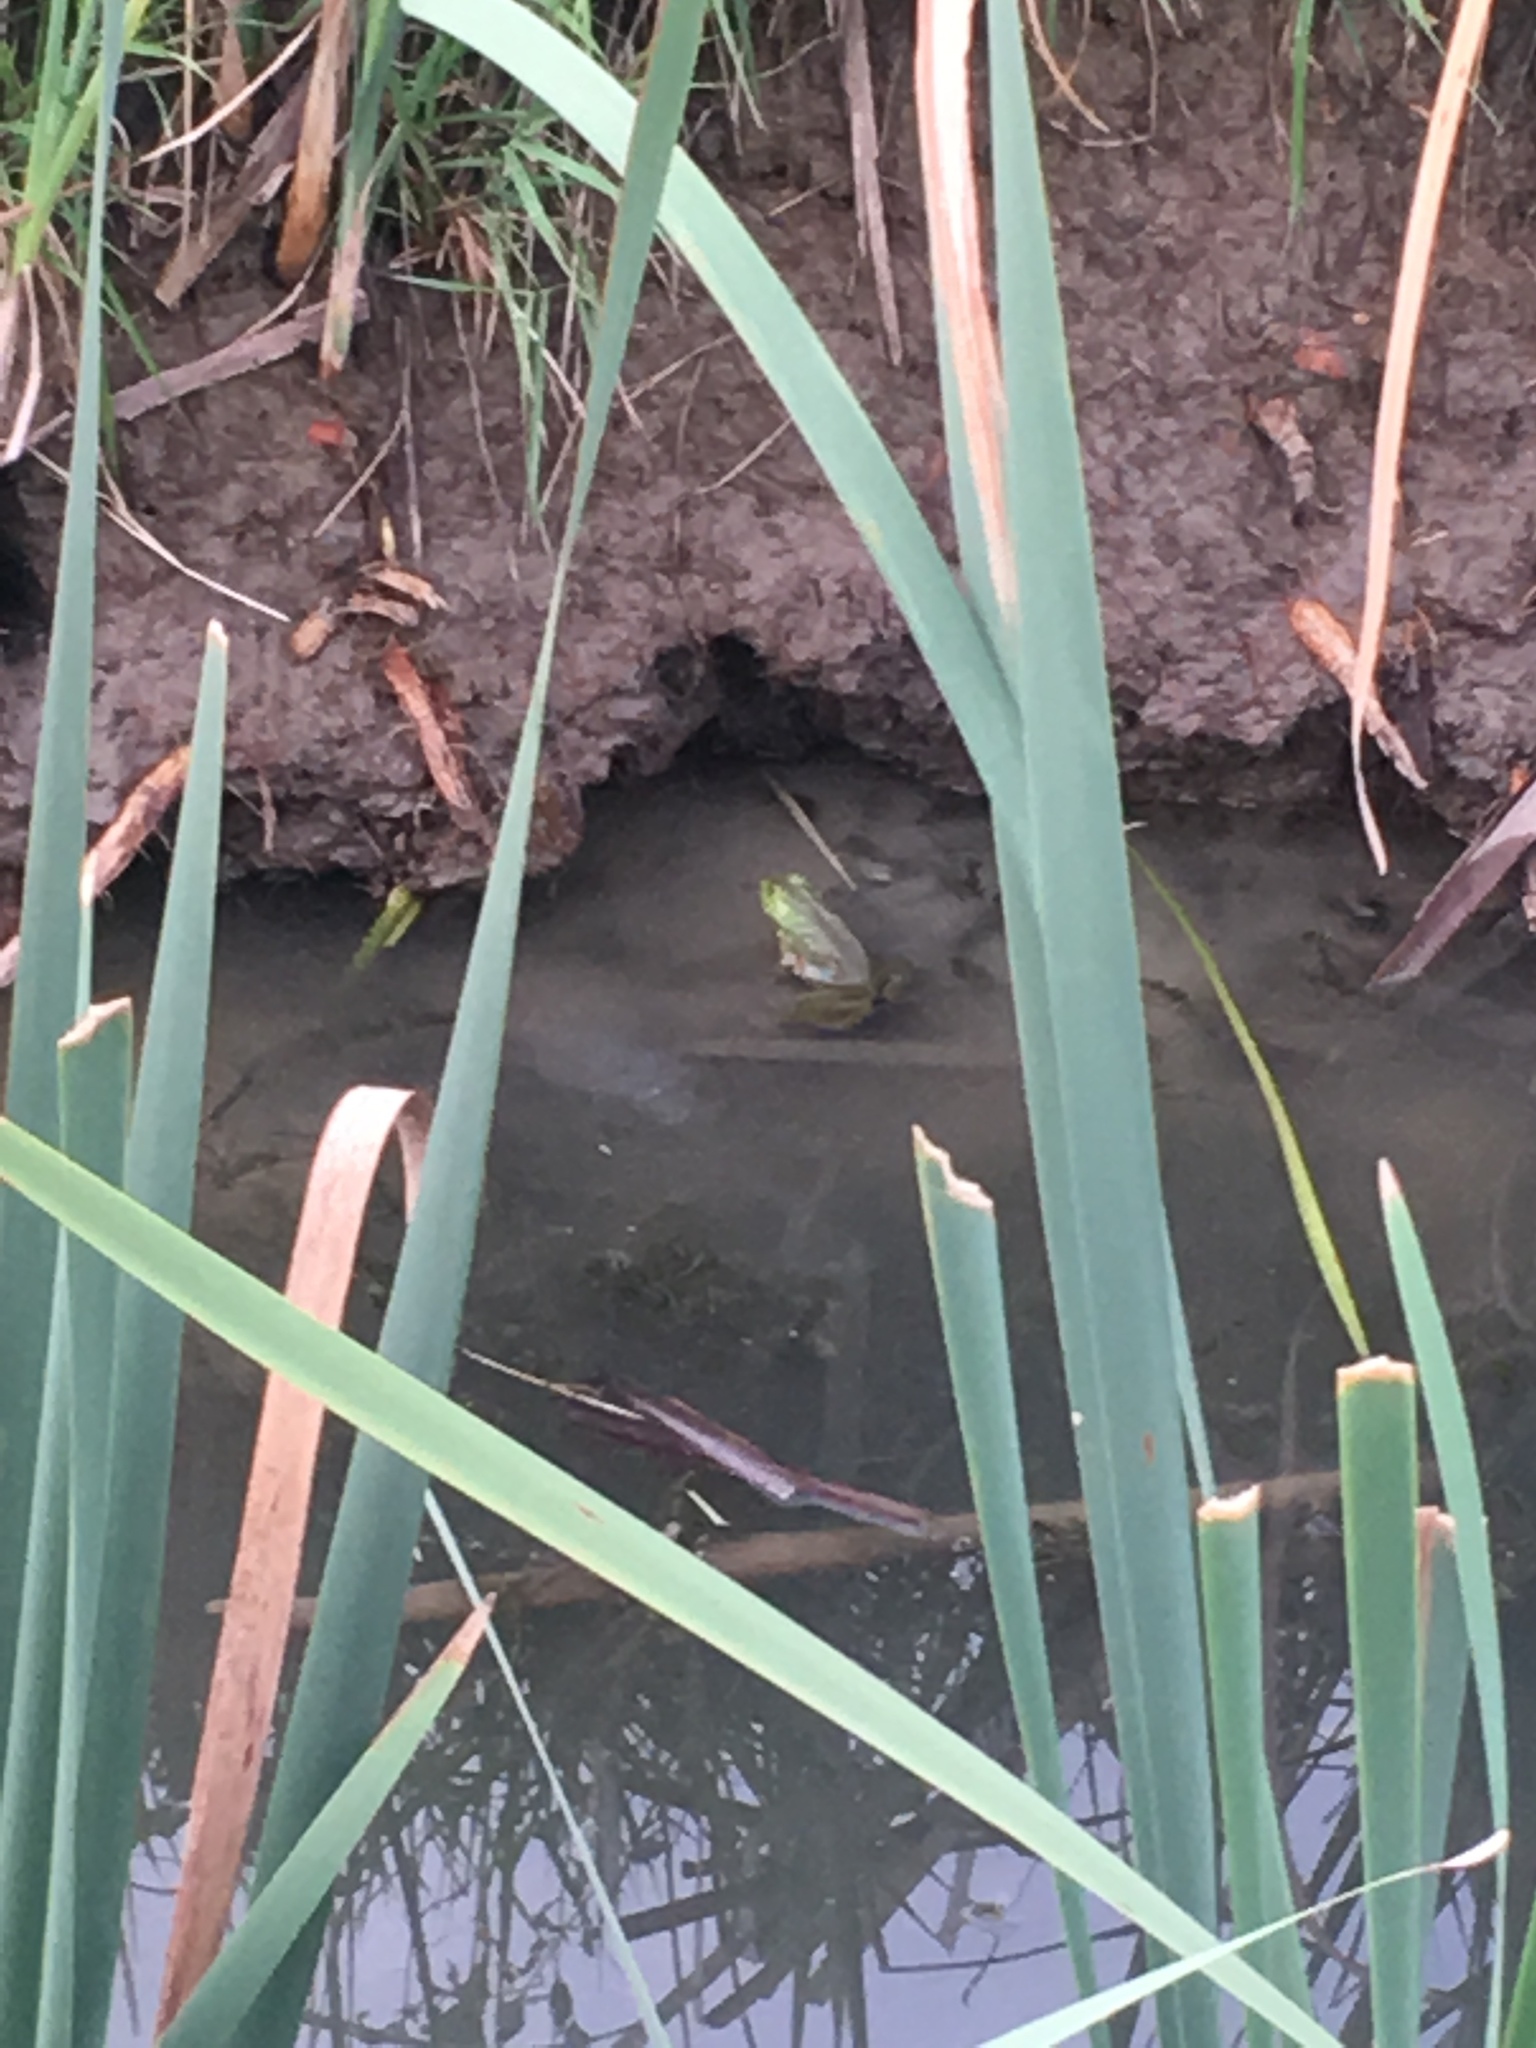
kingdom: Animalia
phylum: Chordata
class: Amphibia
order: Anura
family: Ranidae
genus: Lithobates
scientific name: Lithobates catesbeianus
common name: American bullfrog
